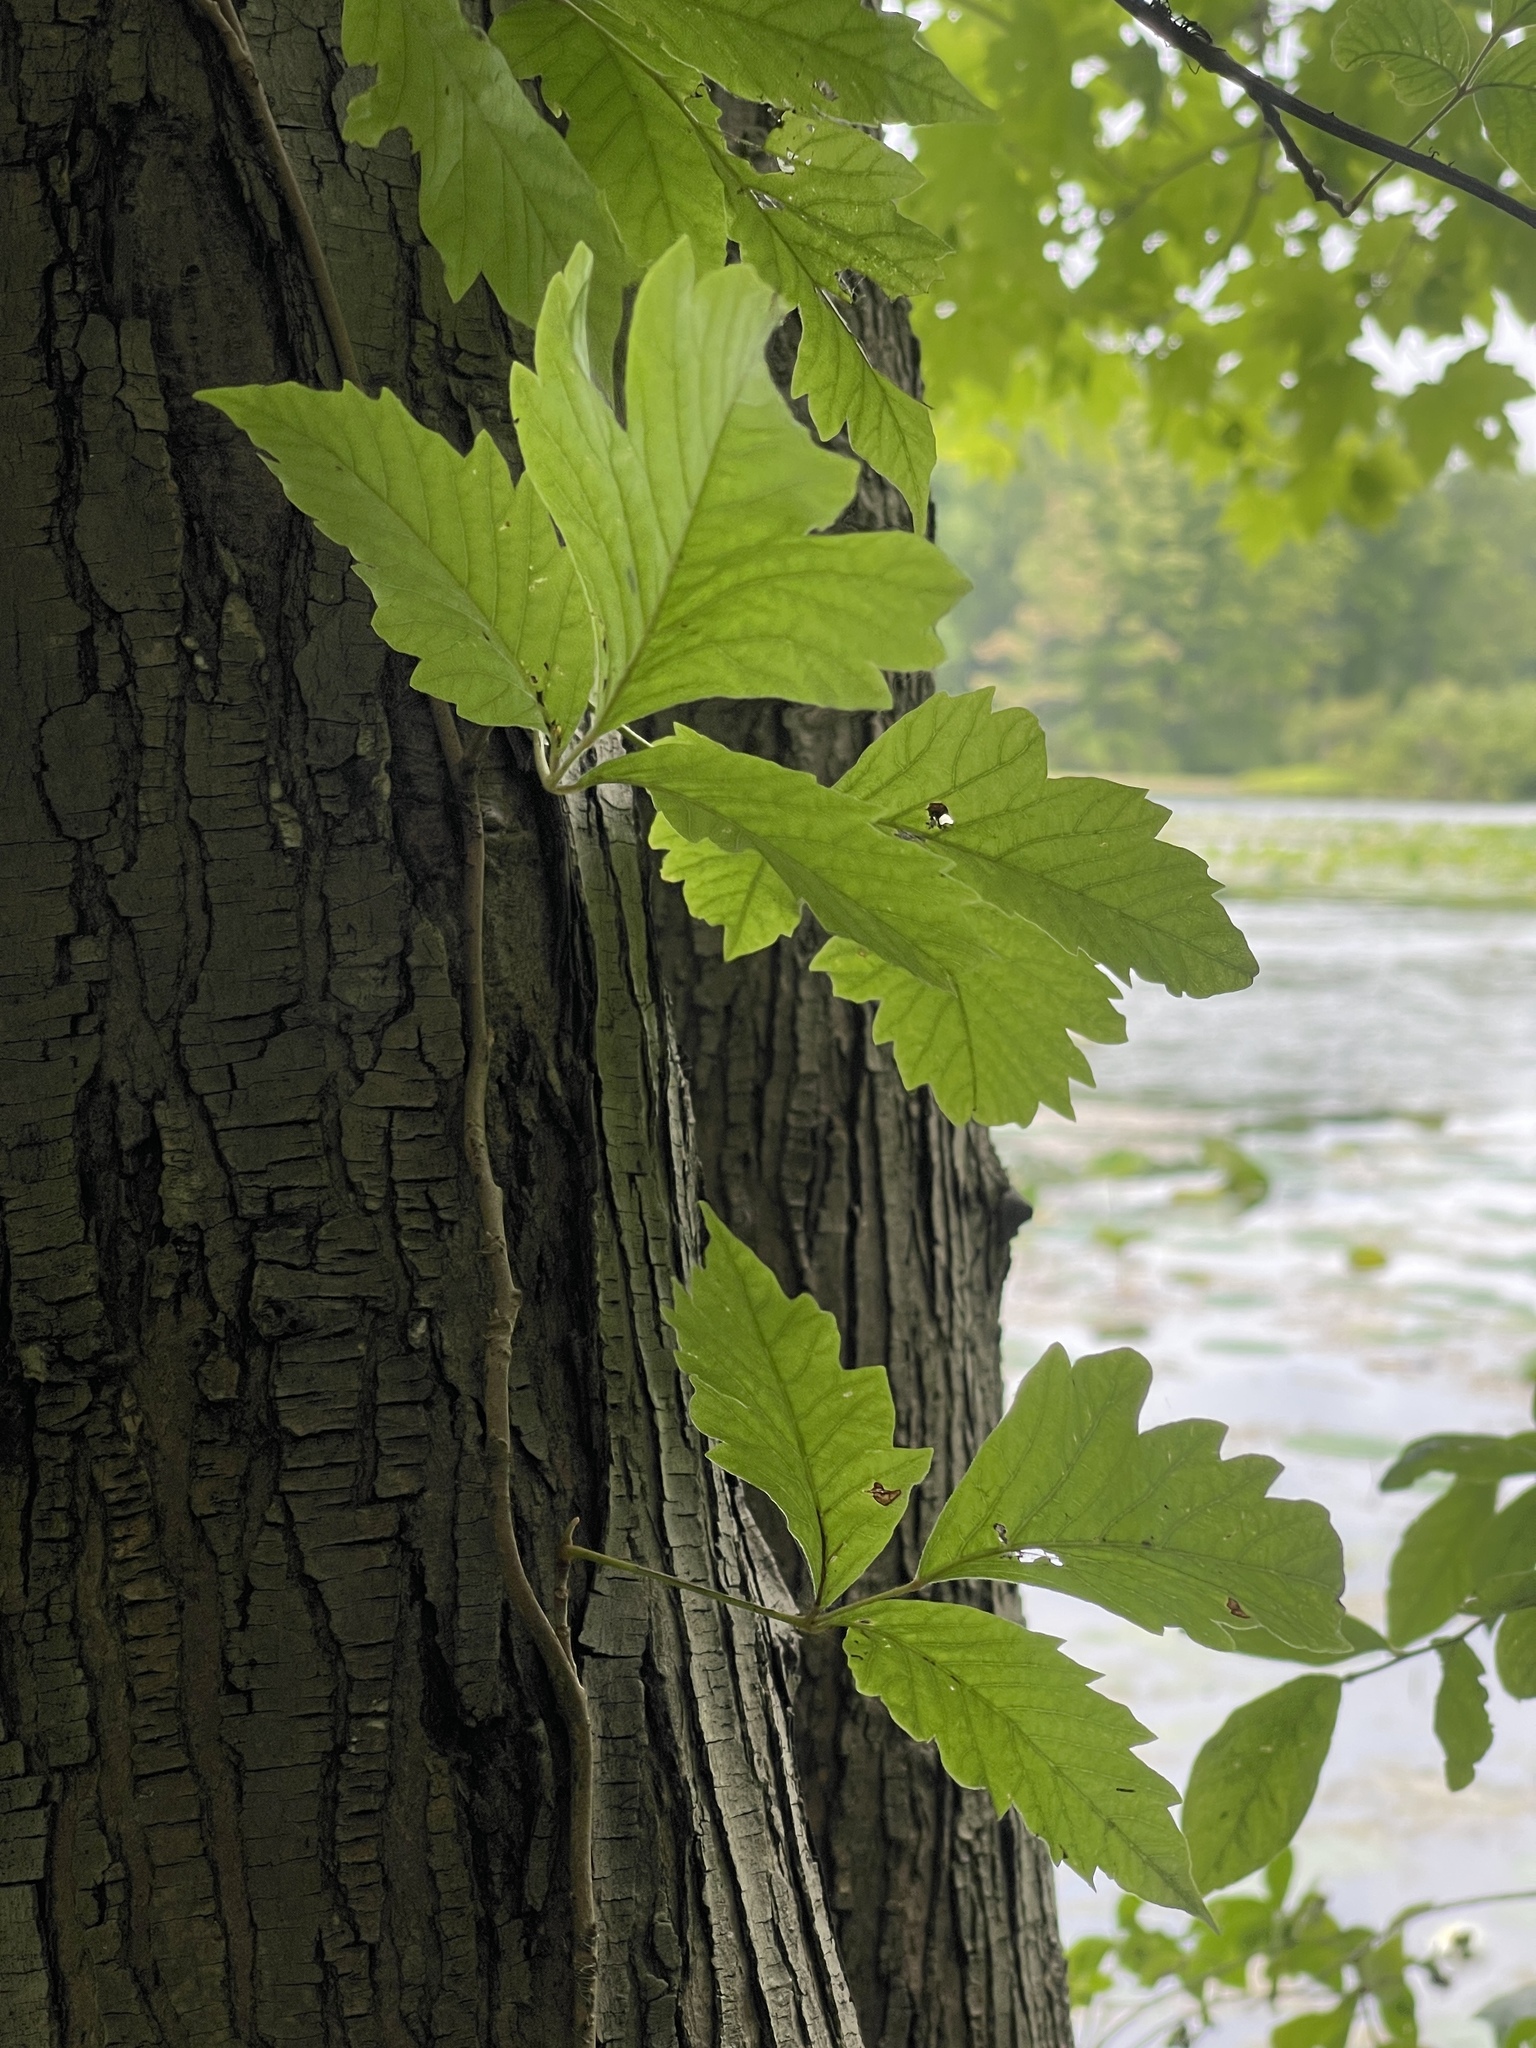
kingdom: Plantae
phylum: Tracheophyta
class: Magnoliopsida
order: Sapindales
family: Anacardiaceae
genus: Toxicodendron
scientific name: Toxicodendron radicans
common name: Poison ivy
